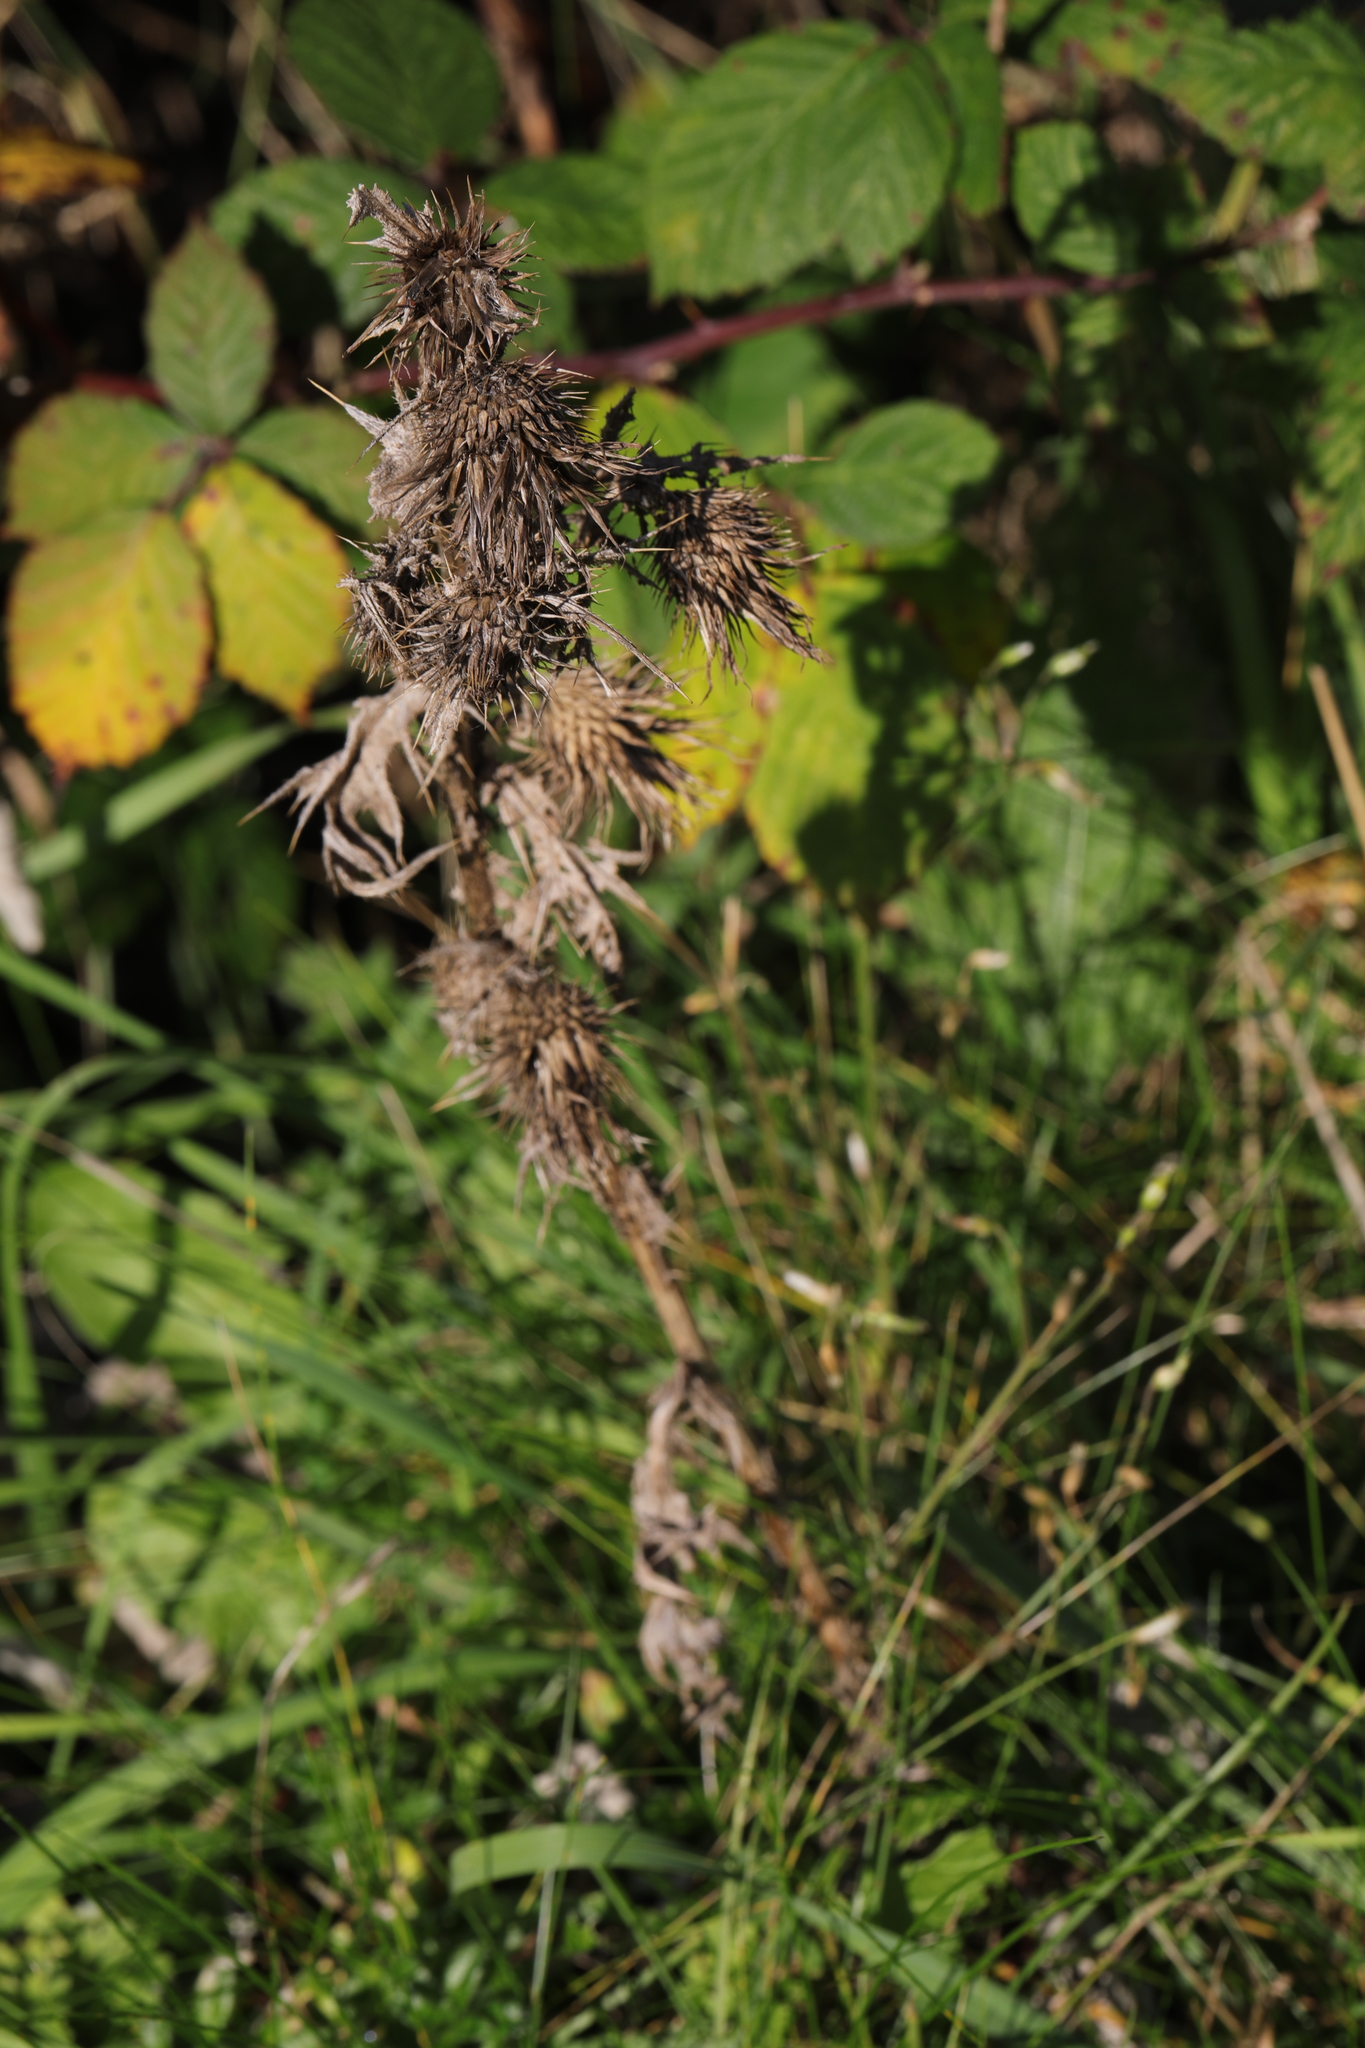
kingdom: Plantae
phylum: Tracheophyta
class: Magnoliopsida
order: Asterales
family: Asteraceae
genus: Cirsium
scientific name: Cirsium vulgare
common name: Bull thistle
